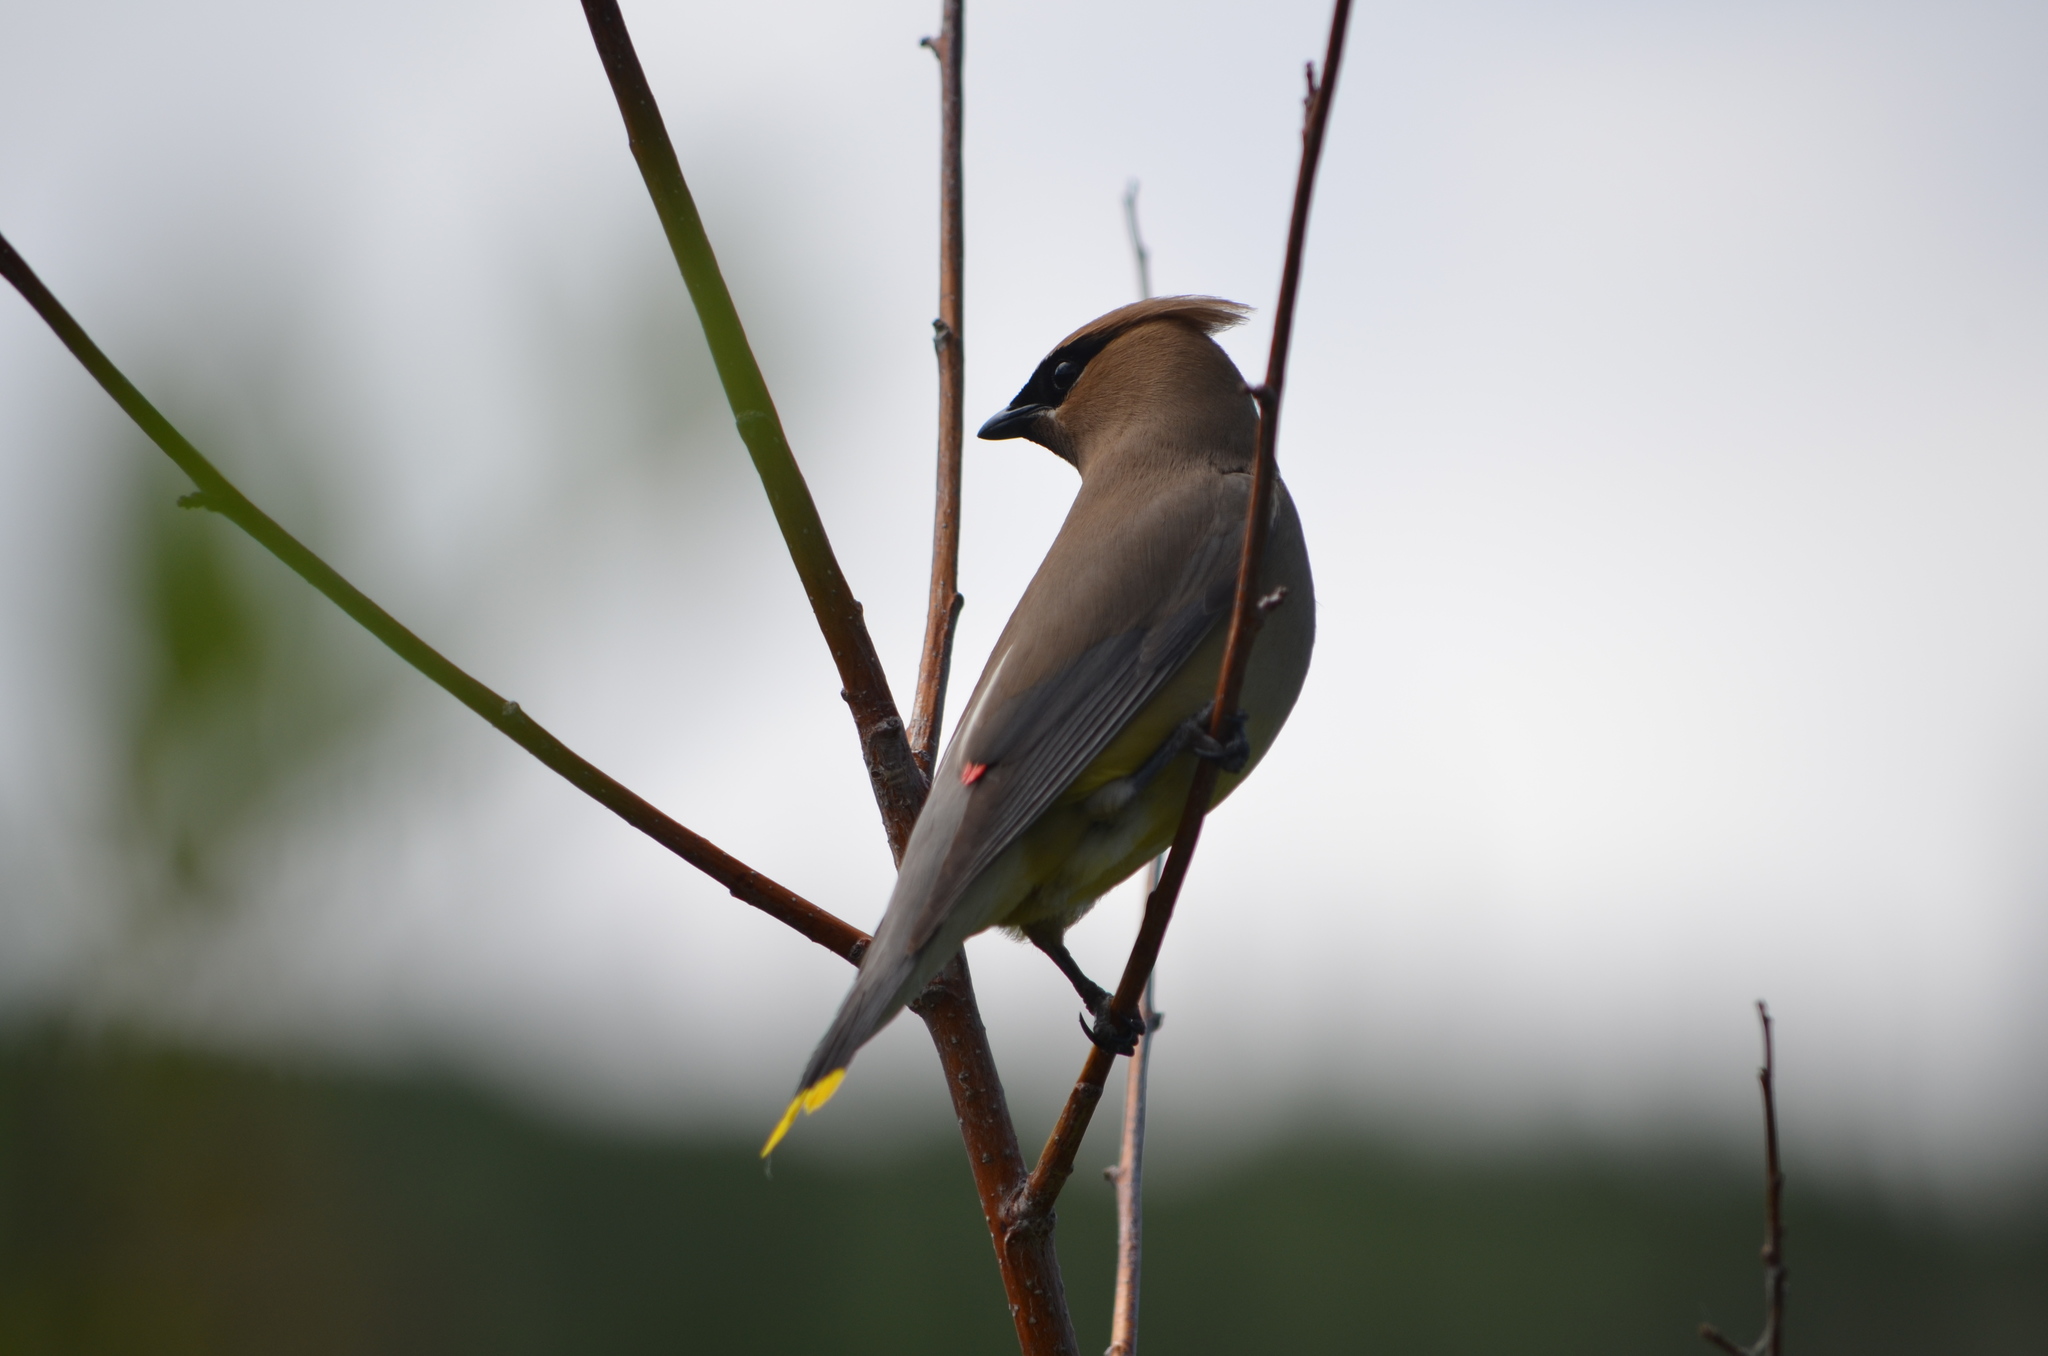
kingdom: Animalia
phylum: Chordata
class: Aves
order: Passeriformes
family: Bombycillidae
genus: Bombycilla
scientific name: Bombycilla cedrorum
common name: Cedar waxwing
